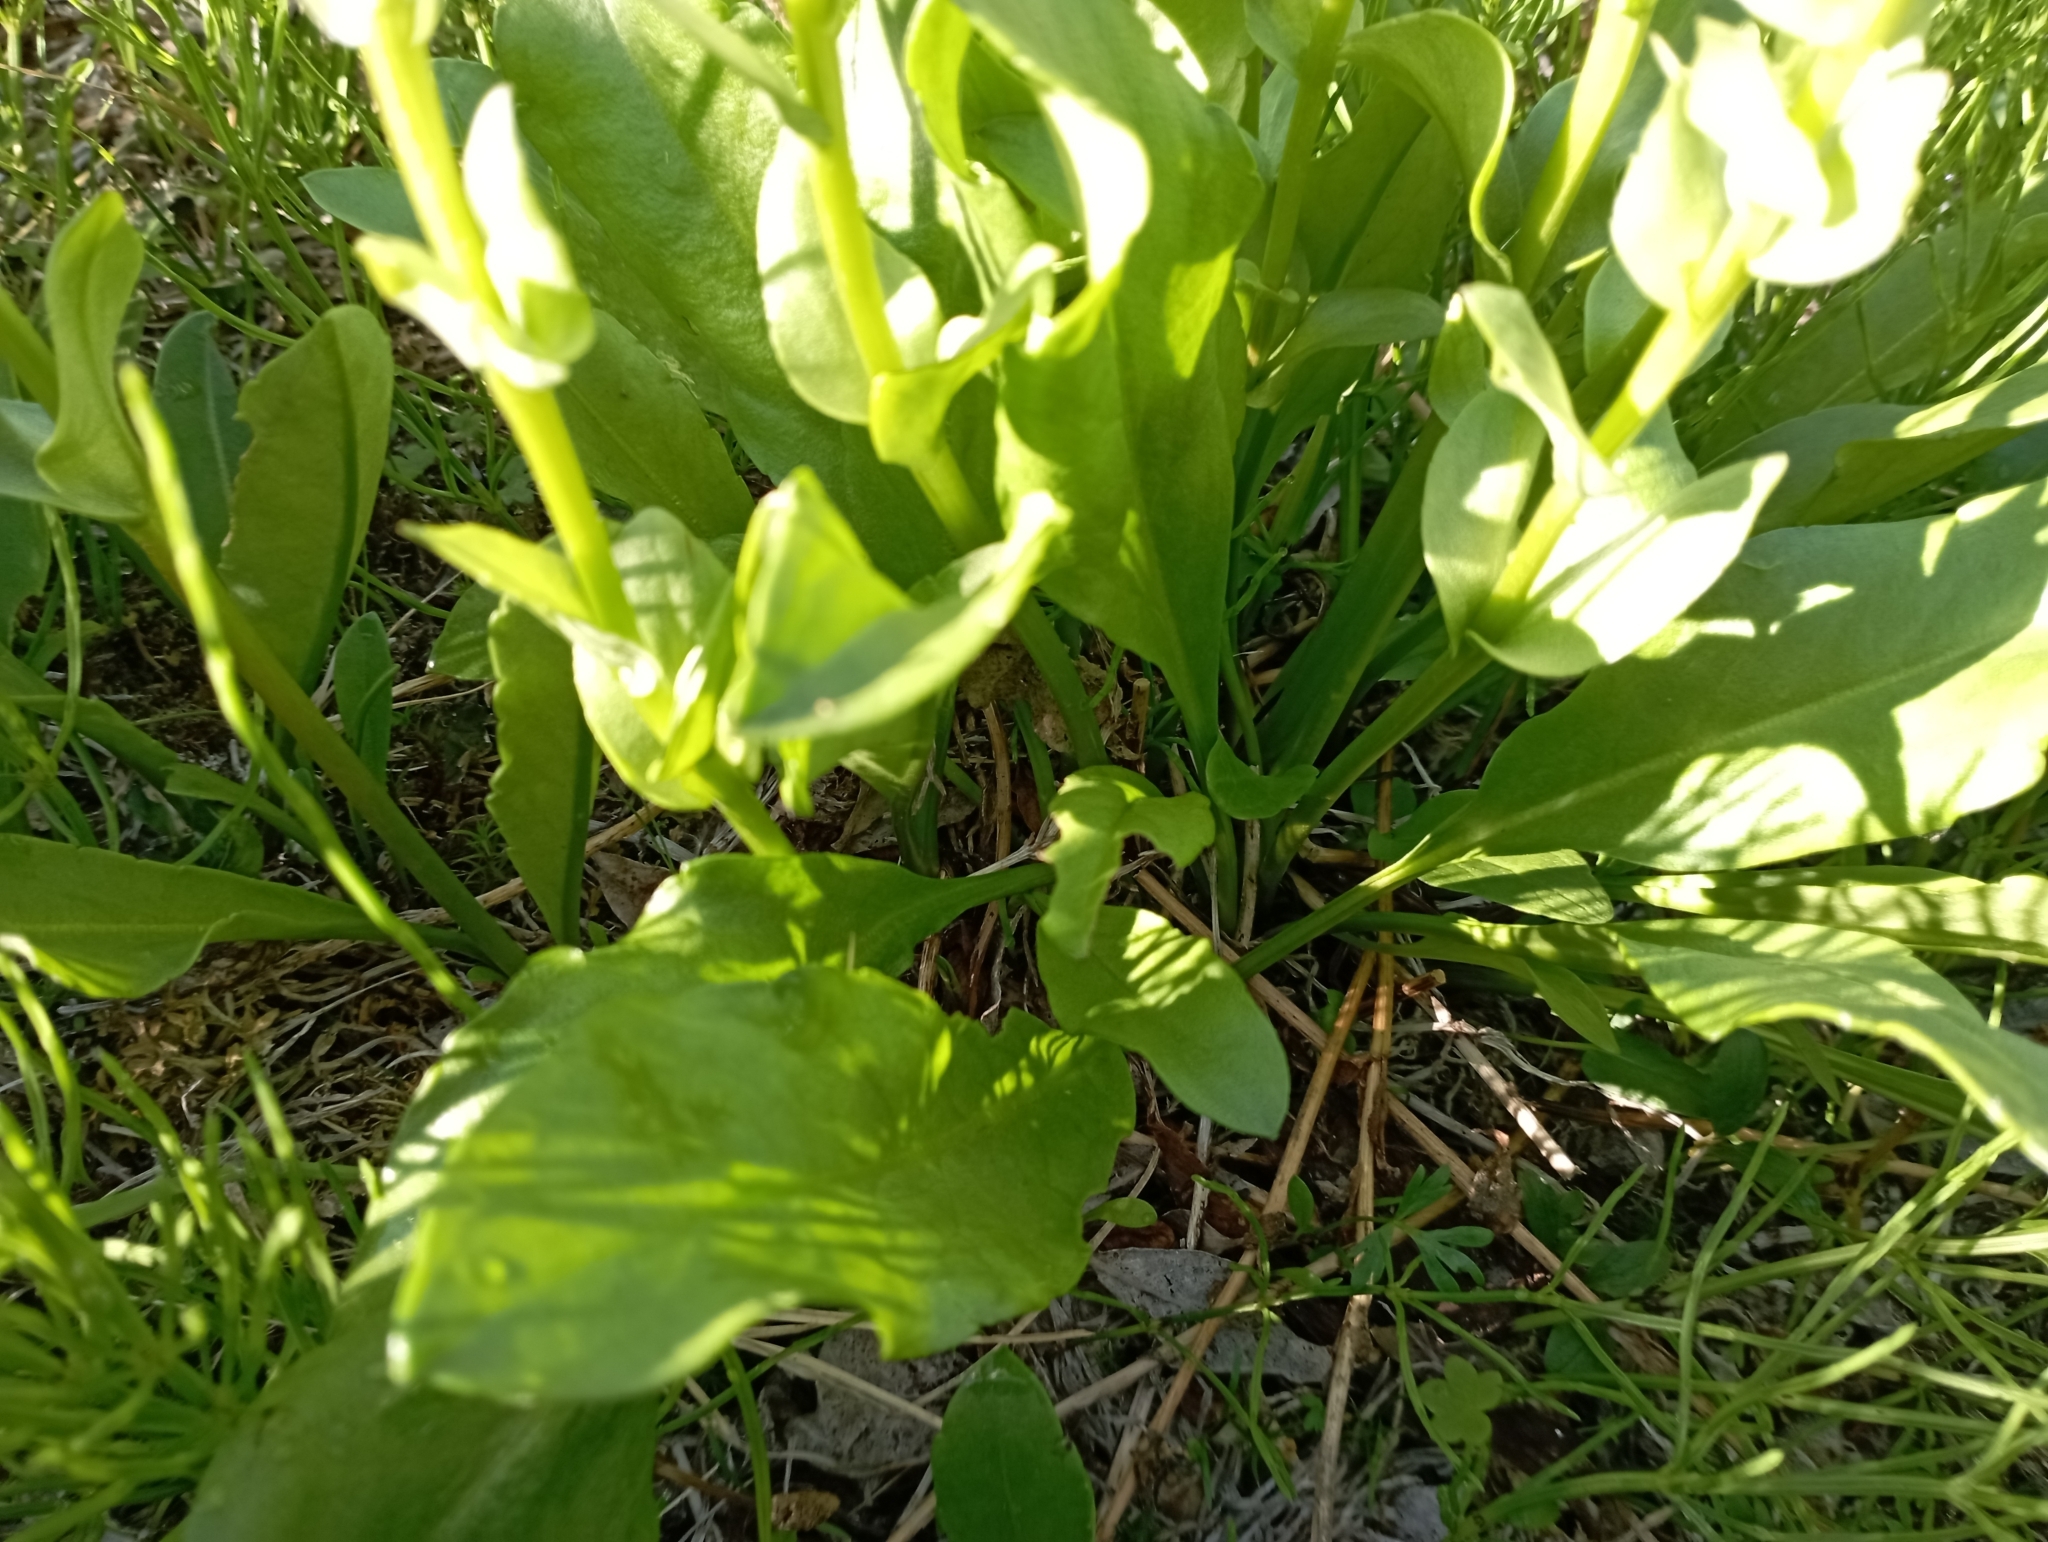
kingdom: Plantae
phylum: Tracheophyta
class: Magnoliopsida
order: Lamiales
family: Plantaginaceae
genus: Lagotis
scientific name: Lagotis glauca
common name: Glaucous weaselsnout
